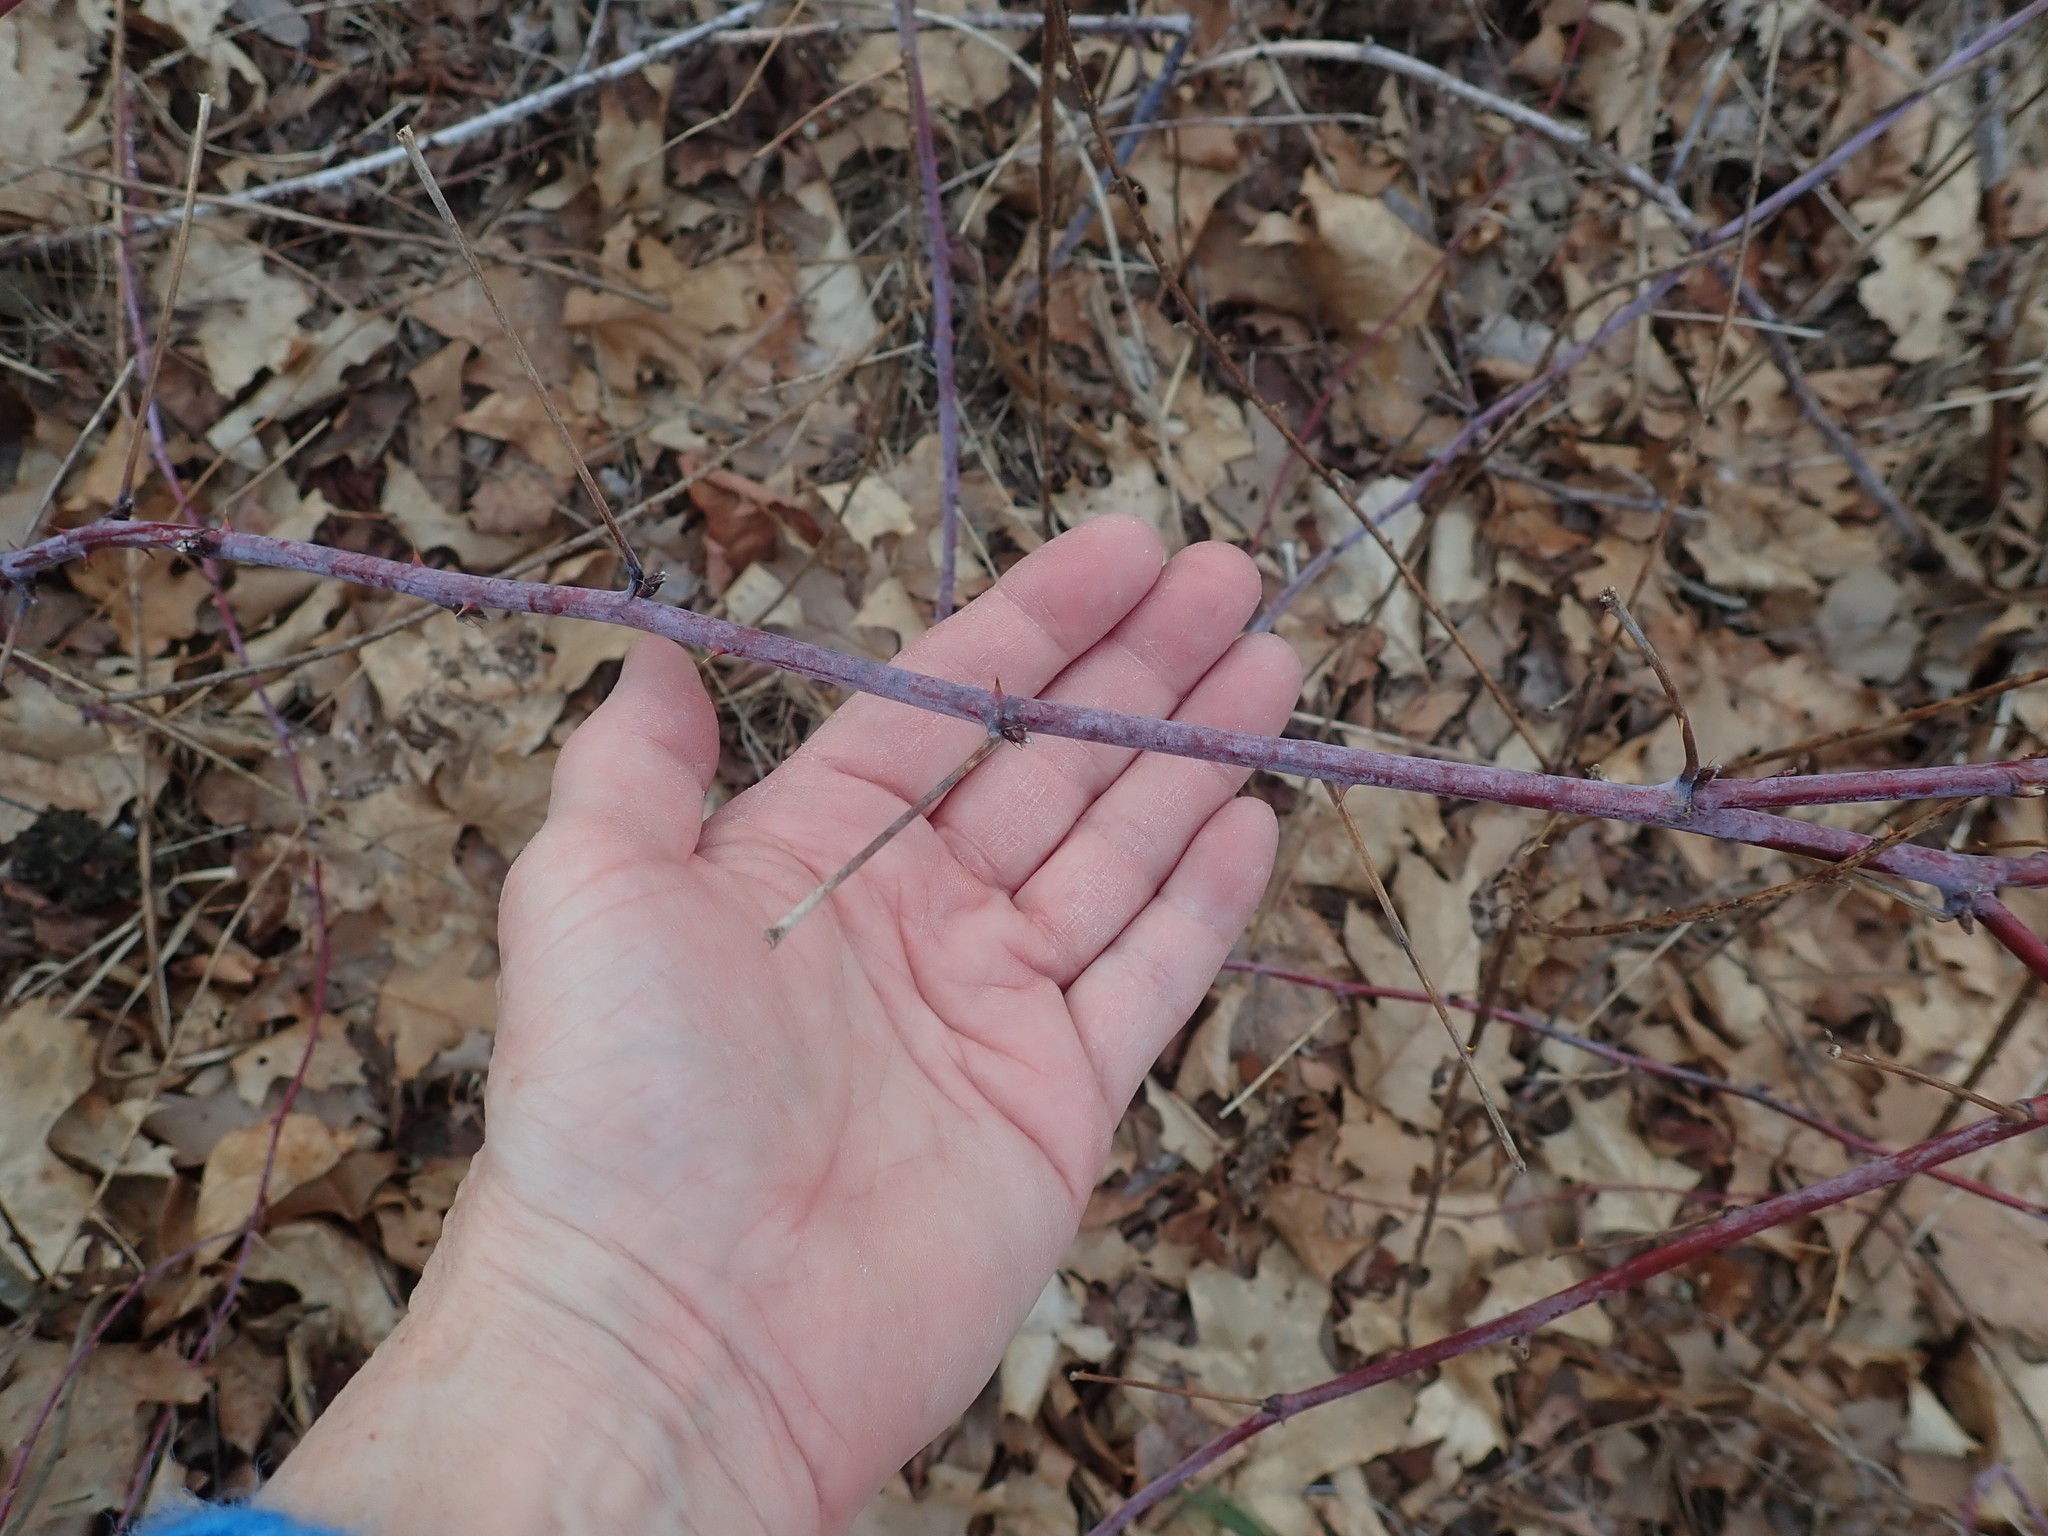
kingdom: Plantae
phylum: Tracheophyta
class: Magnoliopsida
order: Rosales
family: Rosaceae
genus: Rubus
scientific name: Rubus occidentalis
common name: Black raspberry
